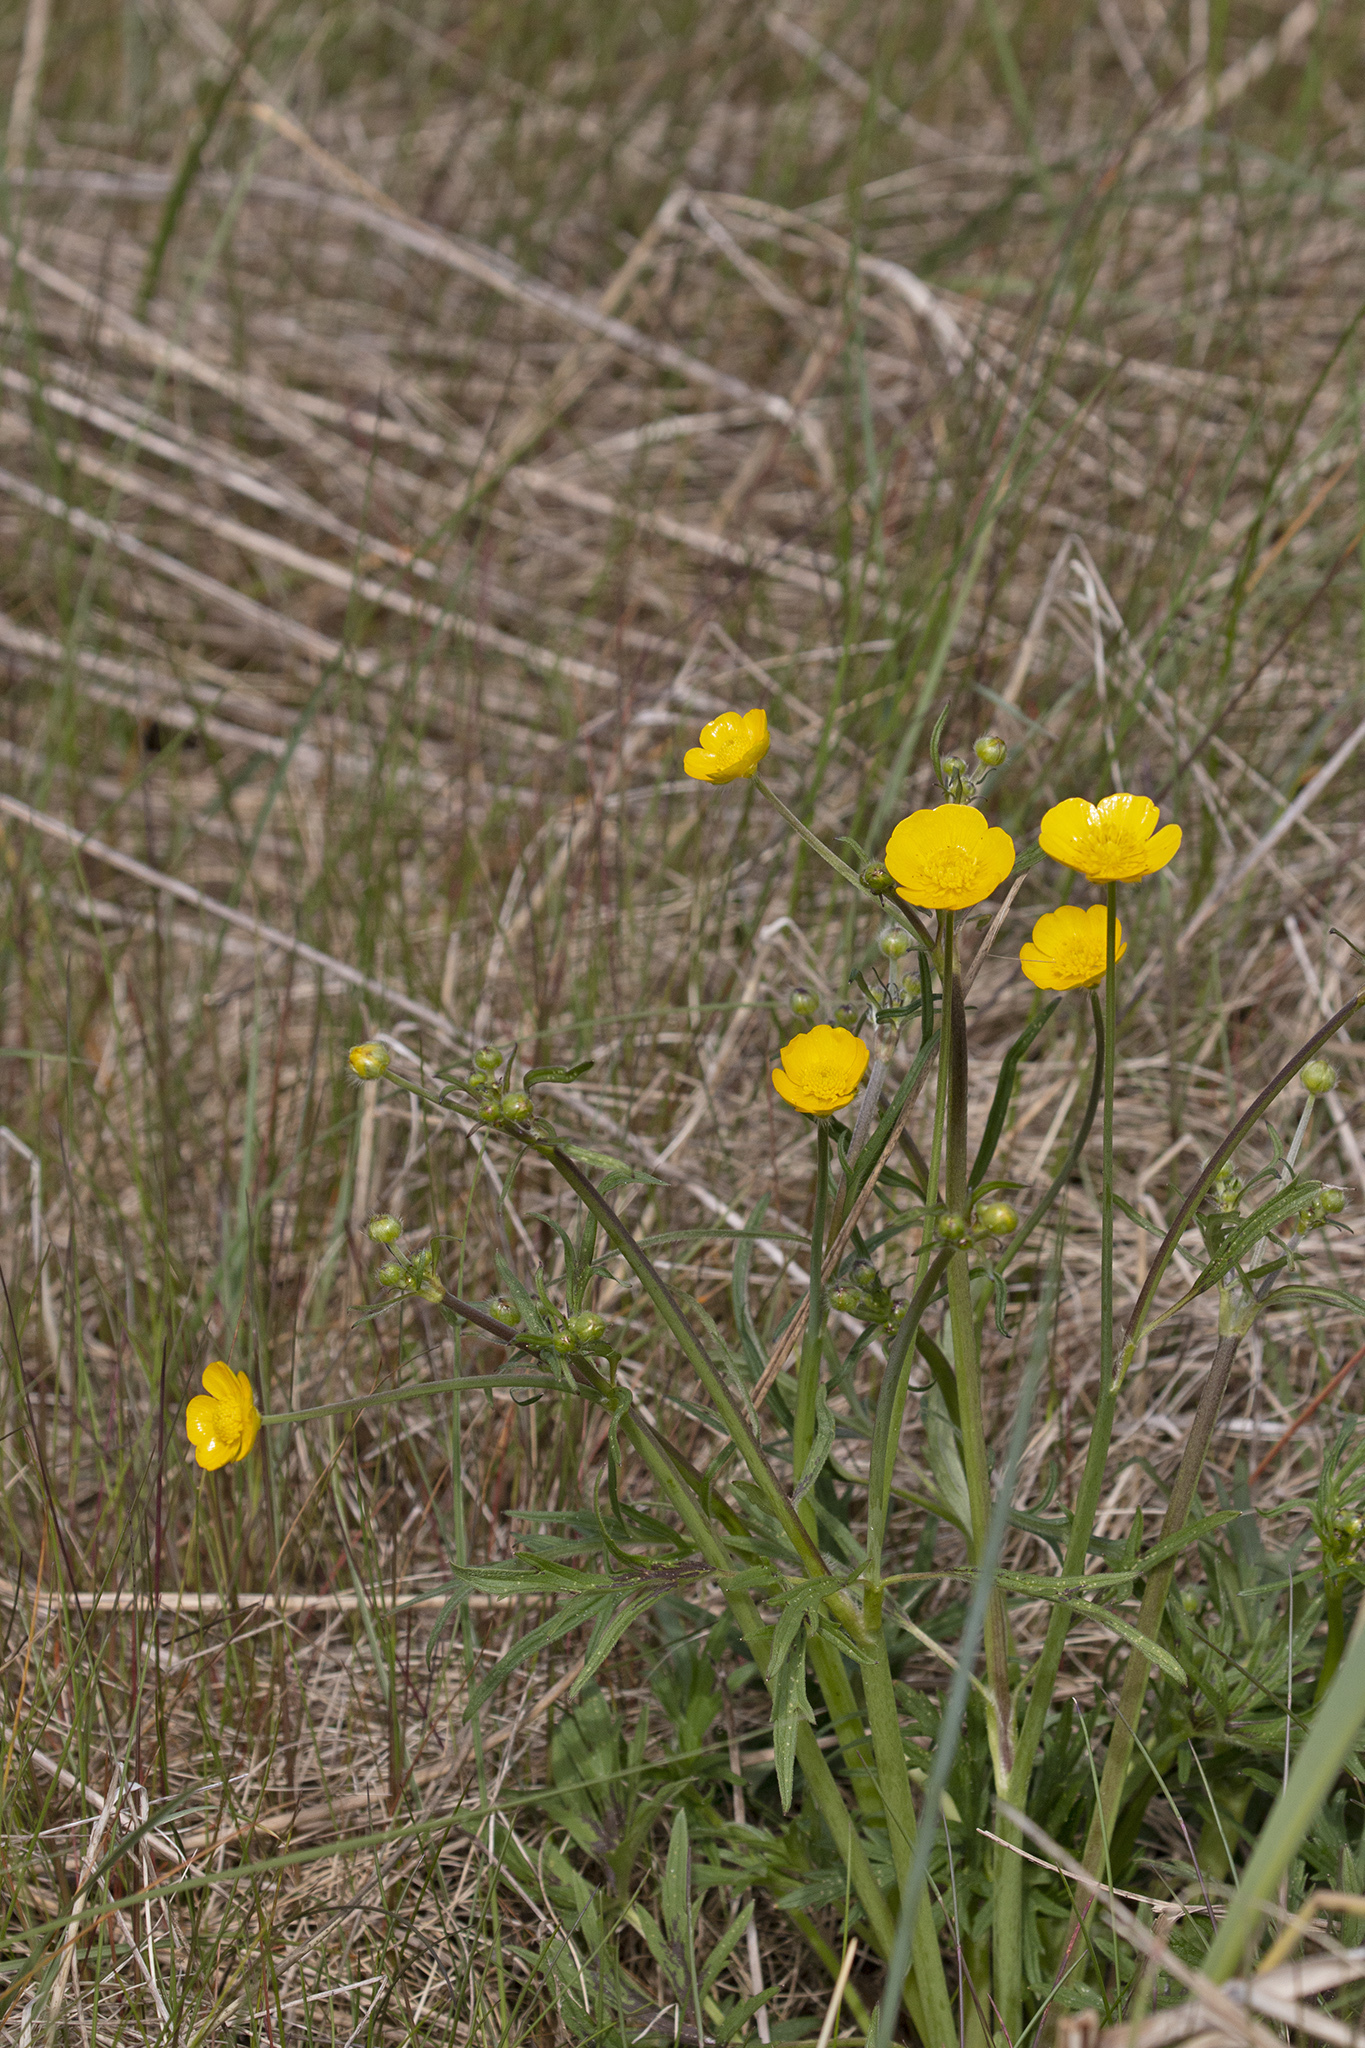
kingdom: Plantae
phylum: Tracheophyta
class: Magnoliopsida
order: Ranunculales
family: Ranunculaceae
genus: Ranunculus
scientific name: Ranunculus acris
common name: Meadow buttercup
